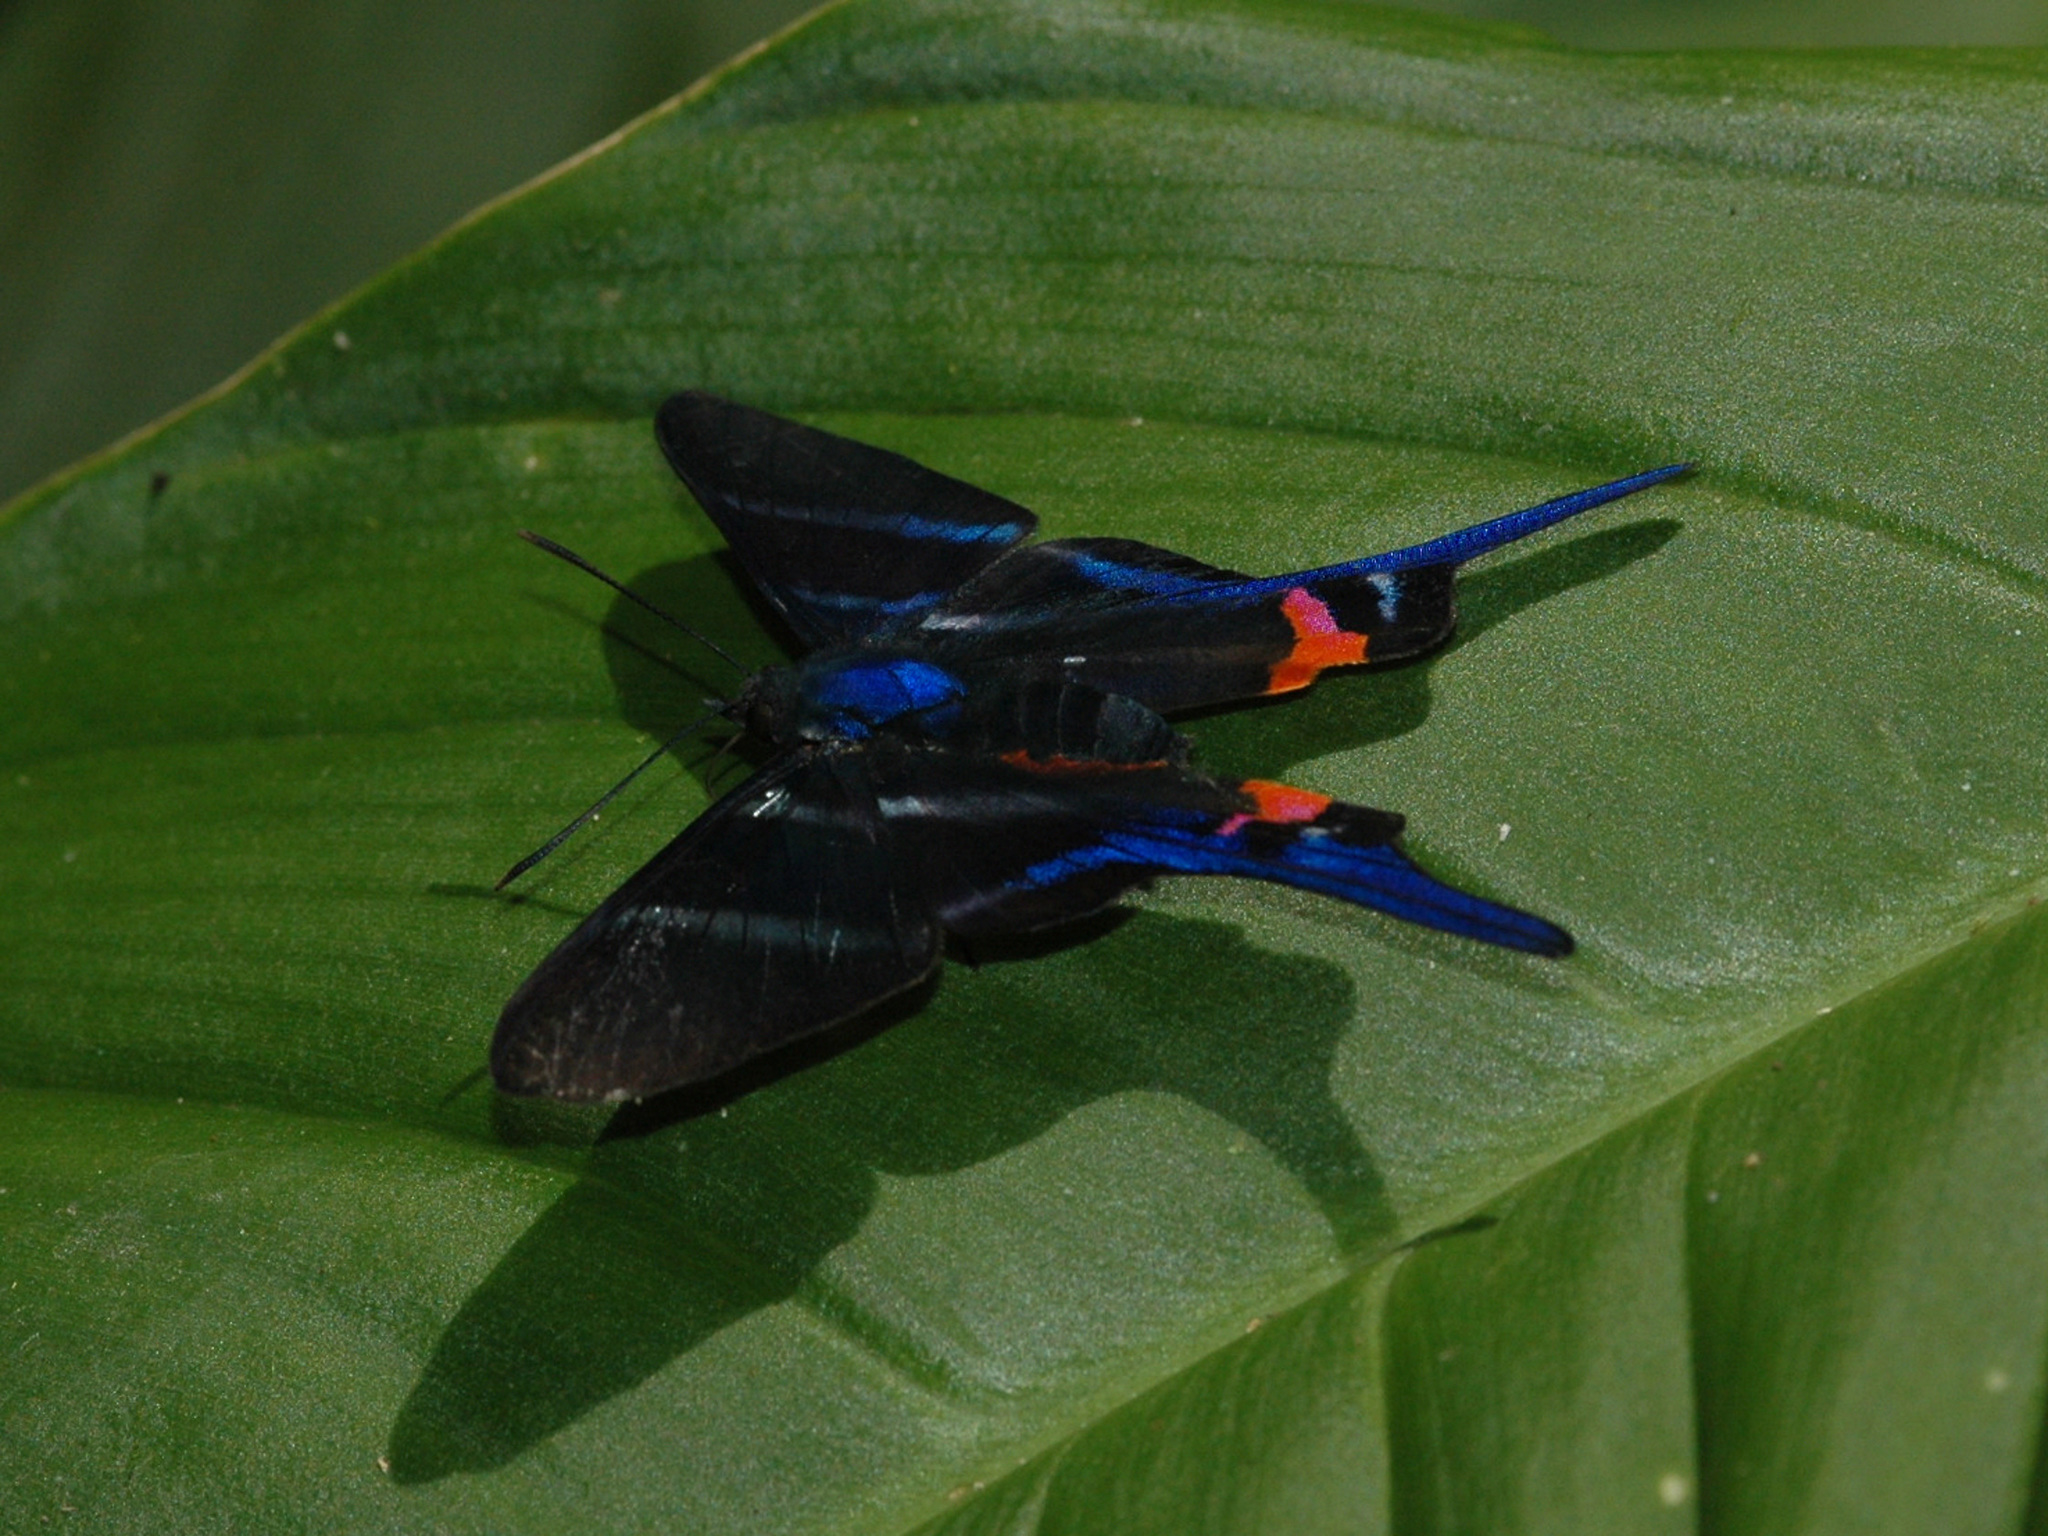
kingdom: Animalia
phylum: Arthropoda
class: Insecta
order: Lepidoptera
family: Riodinidae
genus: Rhetus
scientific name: Rhetus arcius
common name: Long-tailed metalmark
